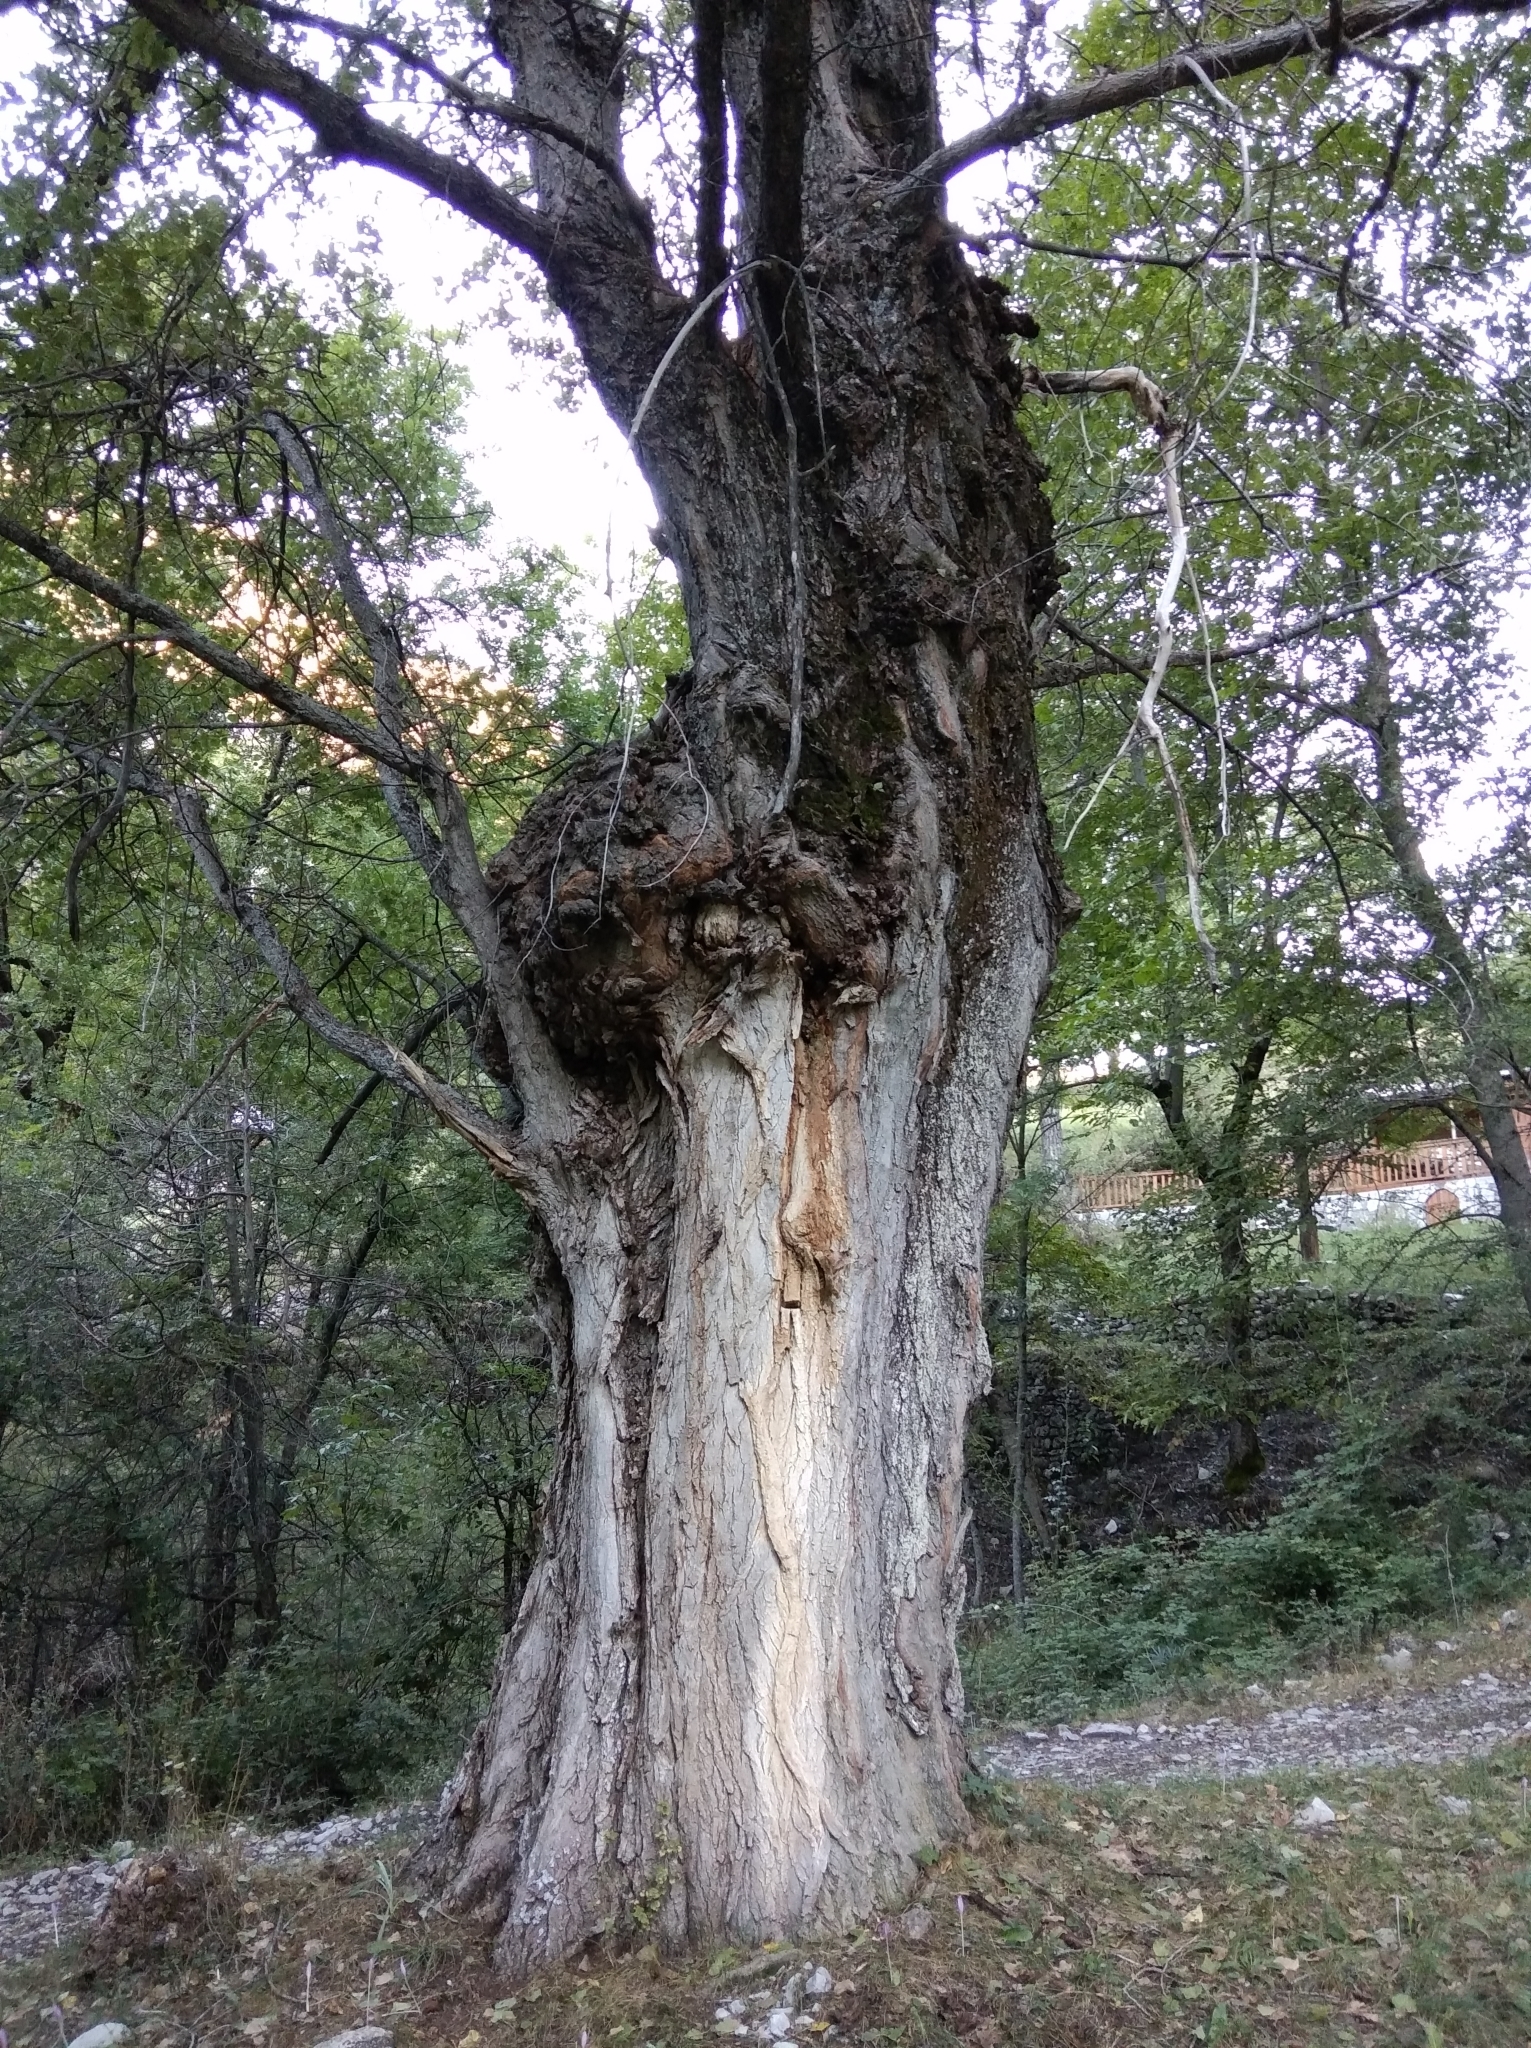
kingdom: Plantae
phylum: Tracheophyta
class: Magnoliopsida
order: Malpighiales
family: Salicaceae
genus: Populus
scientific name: Populus nigra
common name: Black poplar
